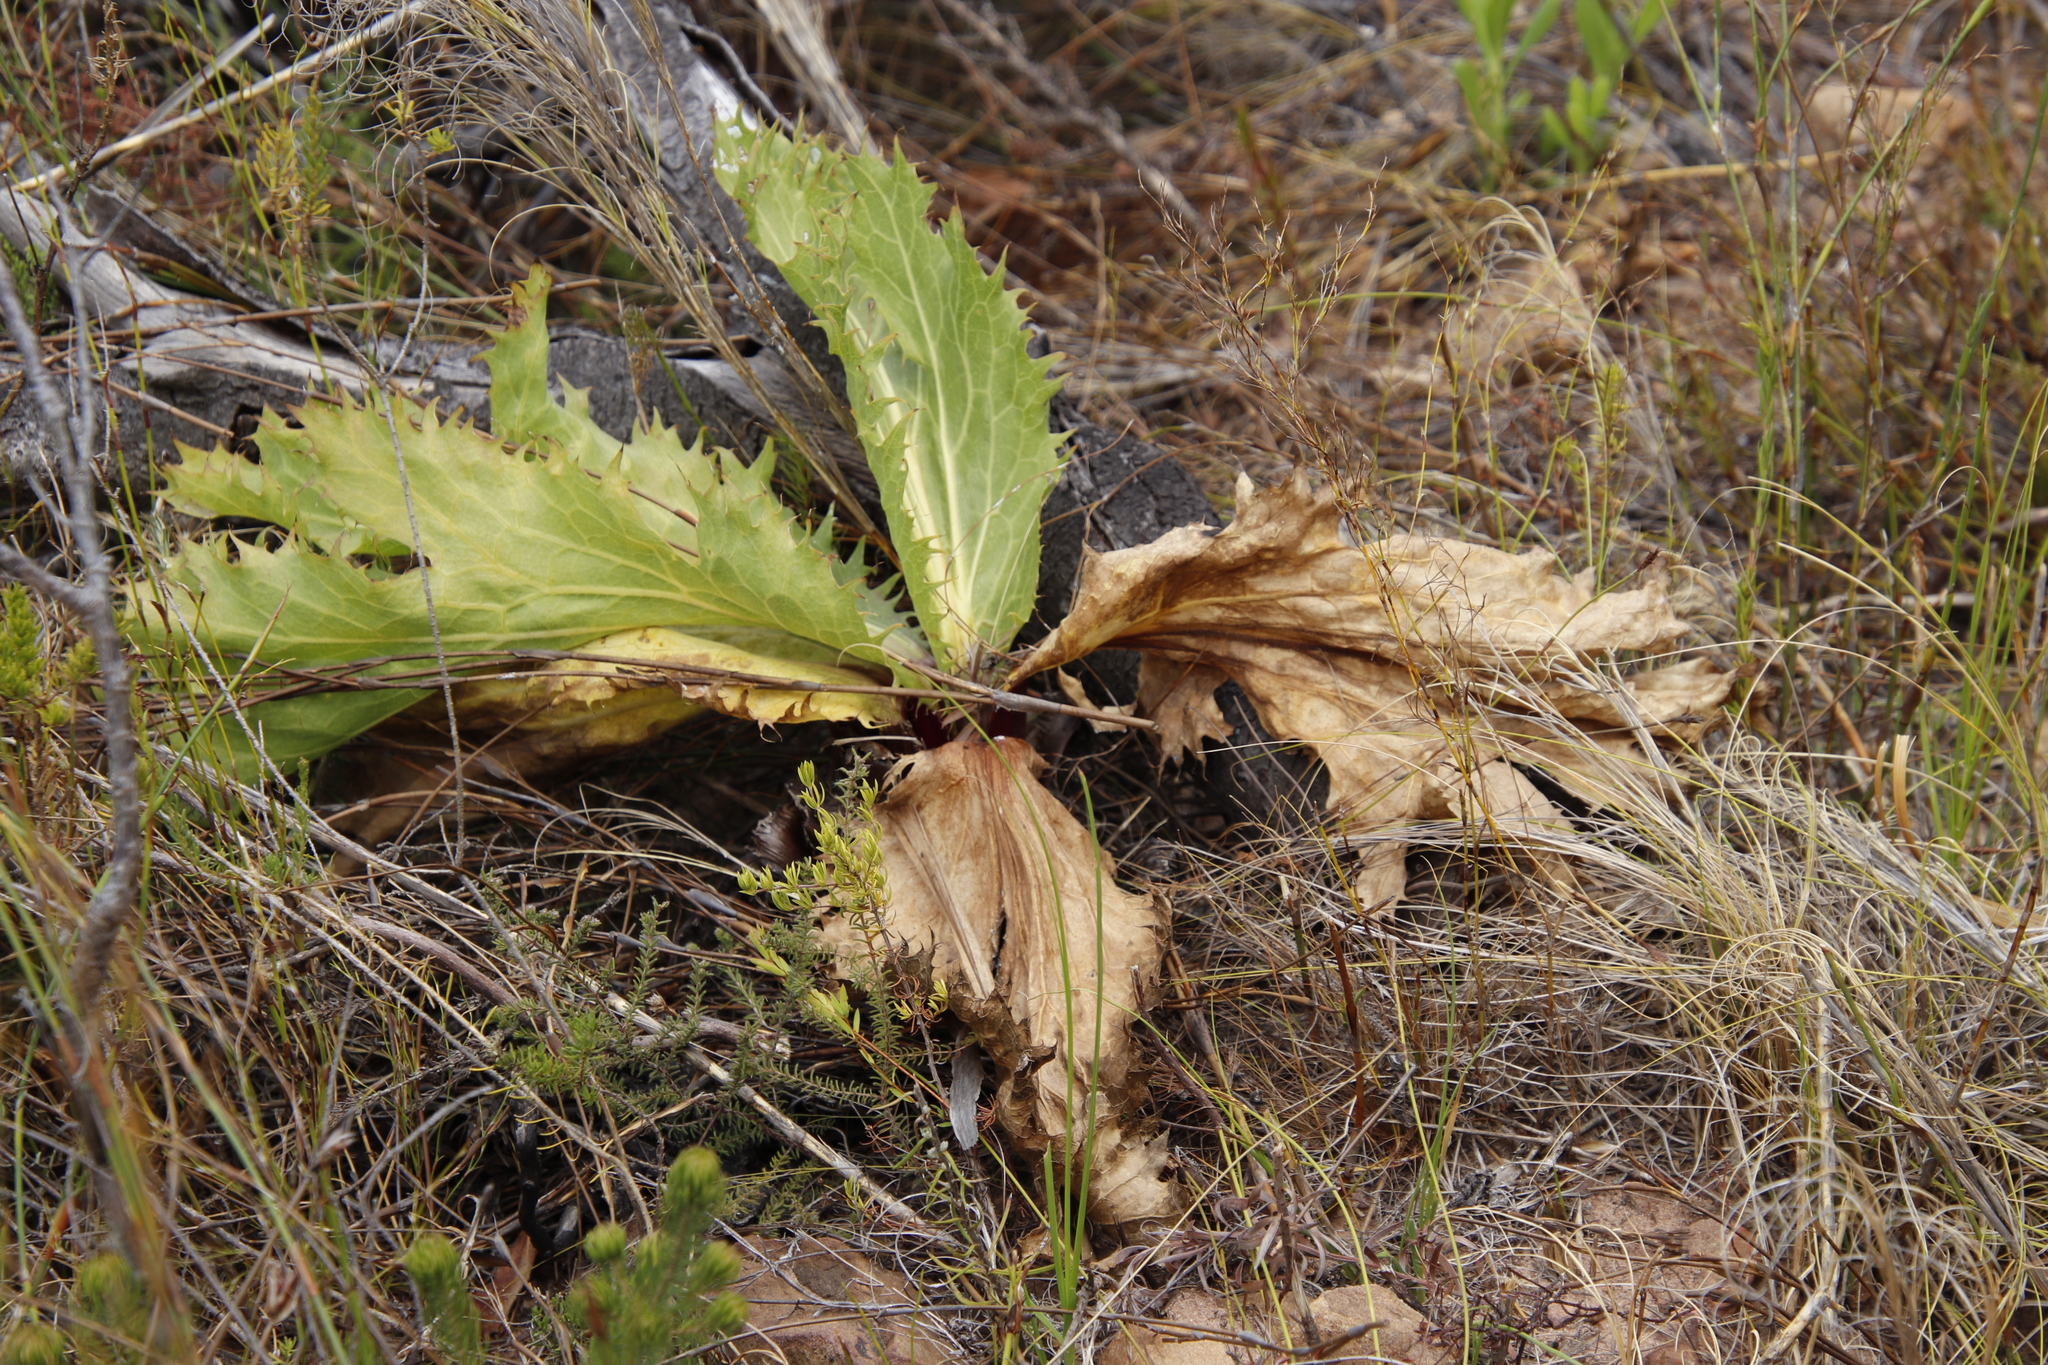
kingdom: Plantae
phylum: Tracheophyta
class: Magnoliopsida
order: Apiales
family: Apiaceae
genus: Lichtensteinia
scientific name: Lichtensteinia lacera
